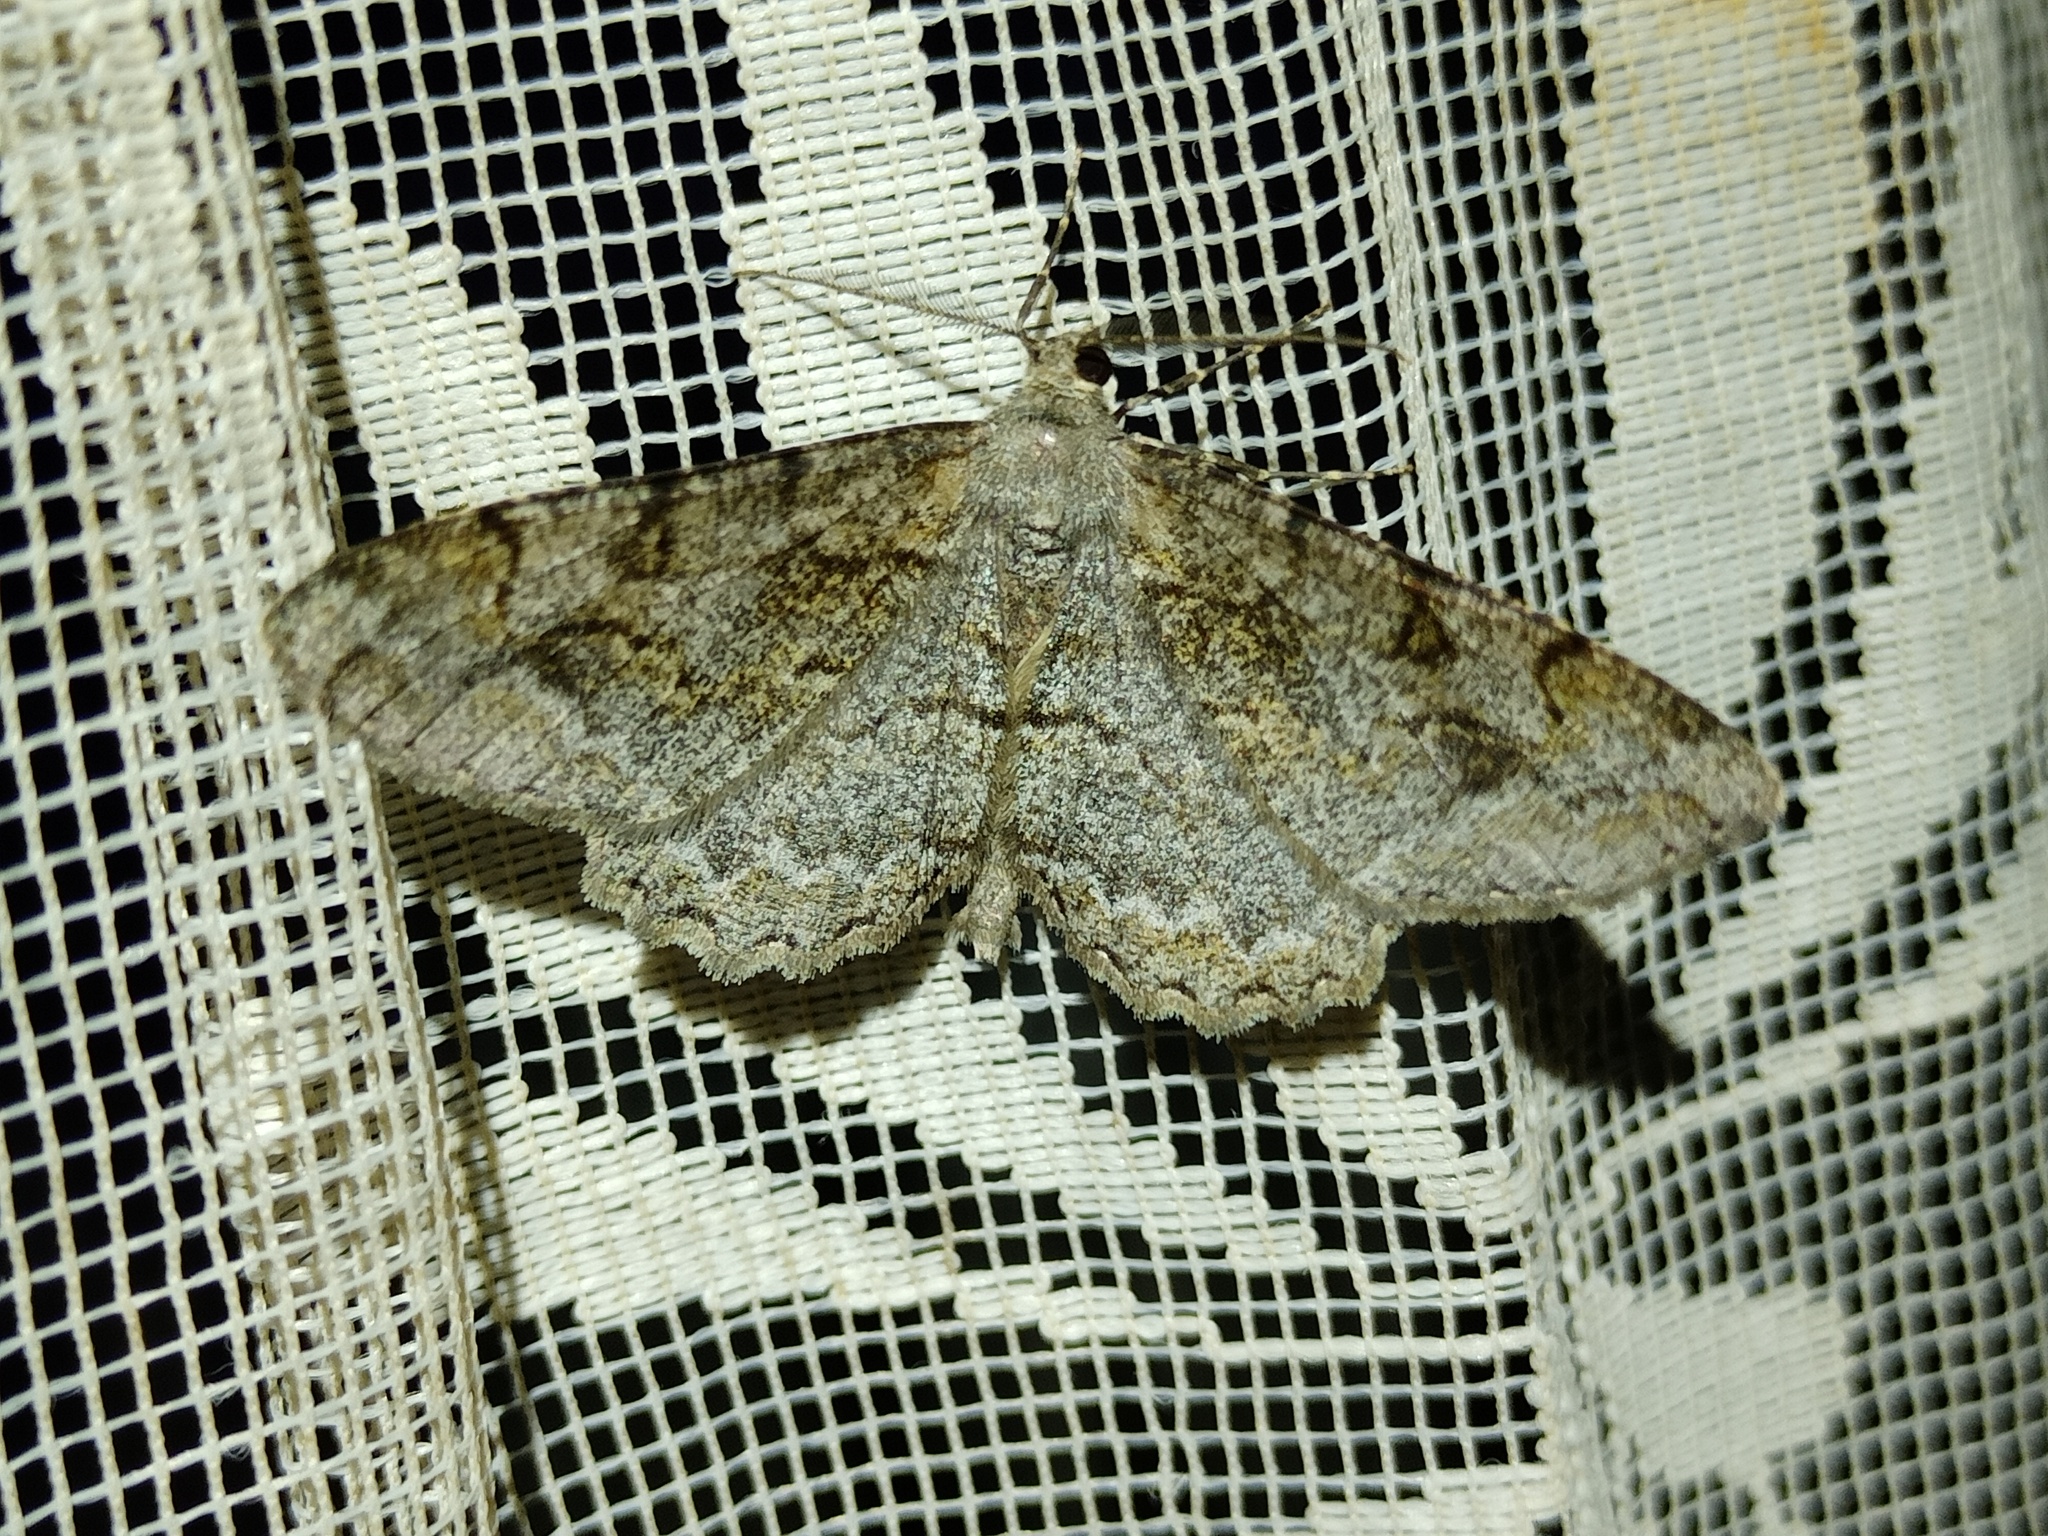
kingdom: Animalia
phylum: Arthropoda
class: Insecta
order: Lepidoptera
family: Geometridae
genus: Alcis
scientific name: Alcis repandata
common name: Mottled beauty
